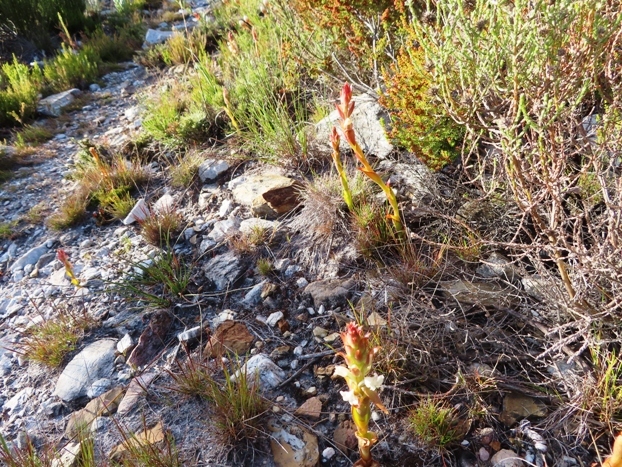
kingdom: Plantae
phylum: Tracheophyta
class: Liliopsida
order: Asparagales
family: Orchidaceae
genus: Satyrium
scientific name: Satyrium acuminatum
